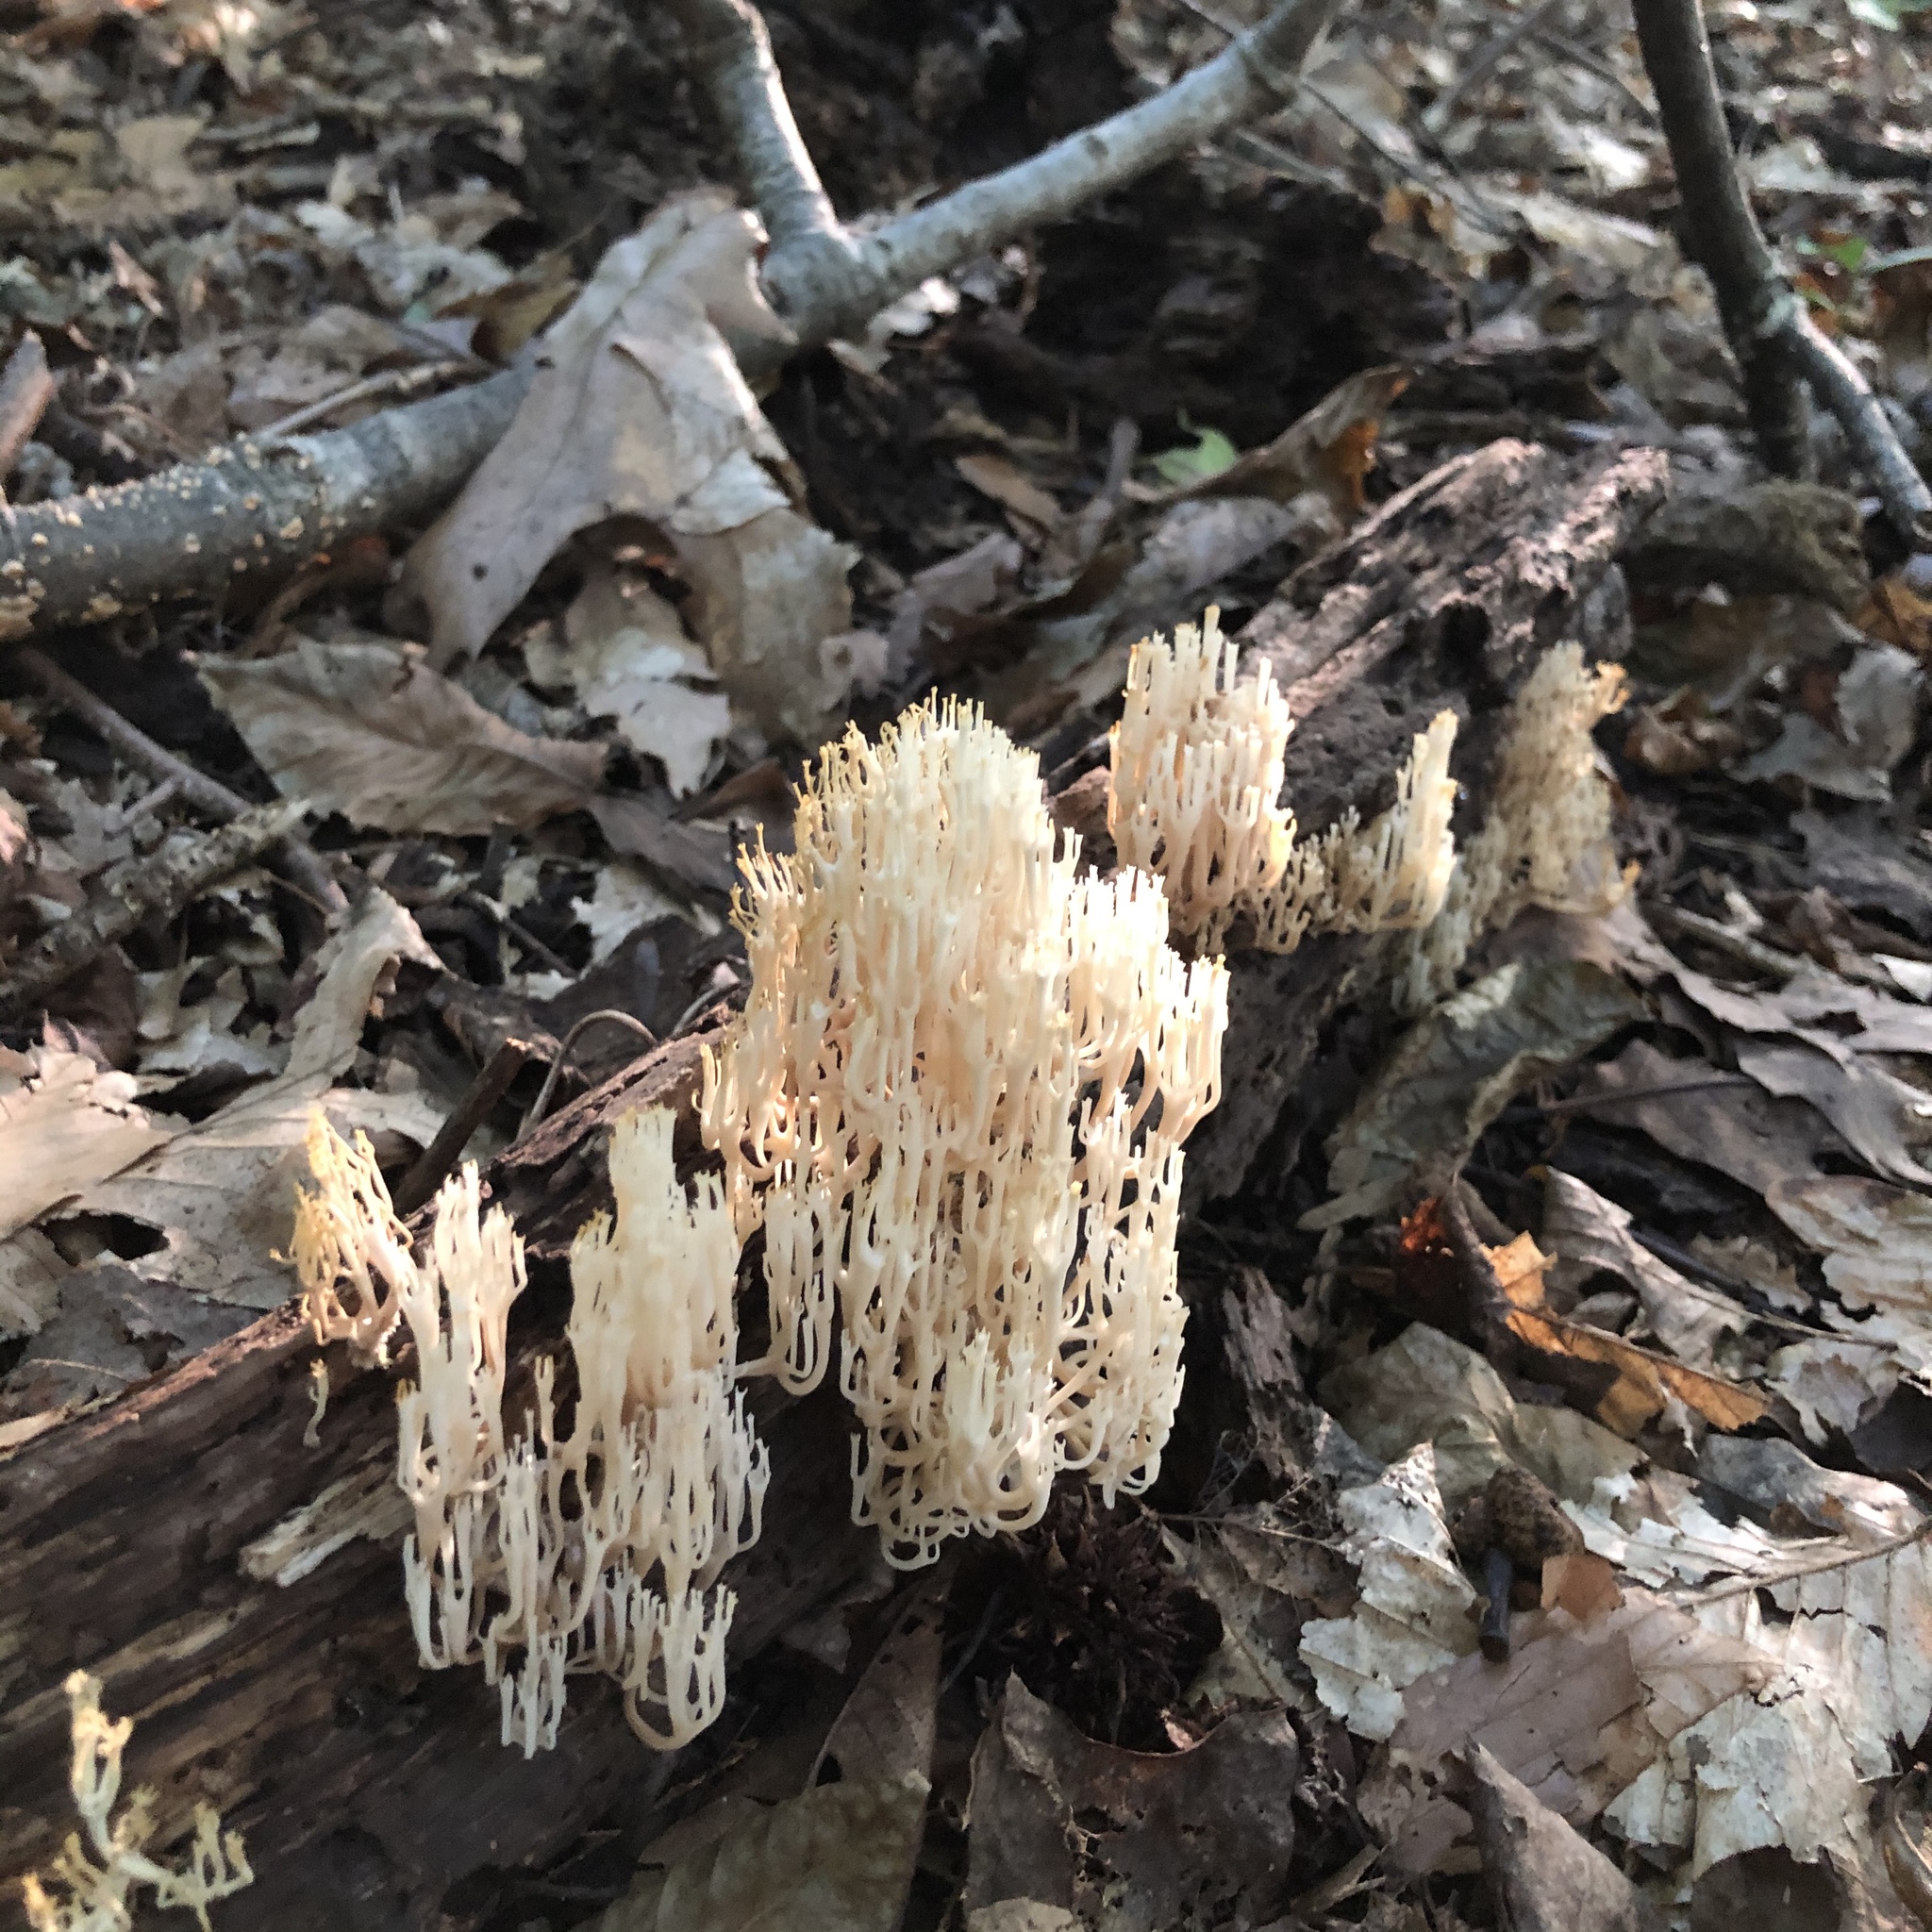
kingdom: Fungi
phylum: Basidiomycota
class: Agaricomycetes
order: Russulales
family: Auriscalpiaceae
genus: Artomyces
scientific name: Artomyces pyxidatus
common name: Crown-tipped coral fungus
